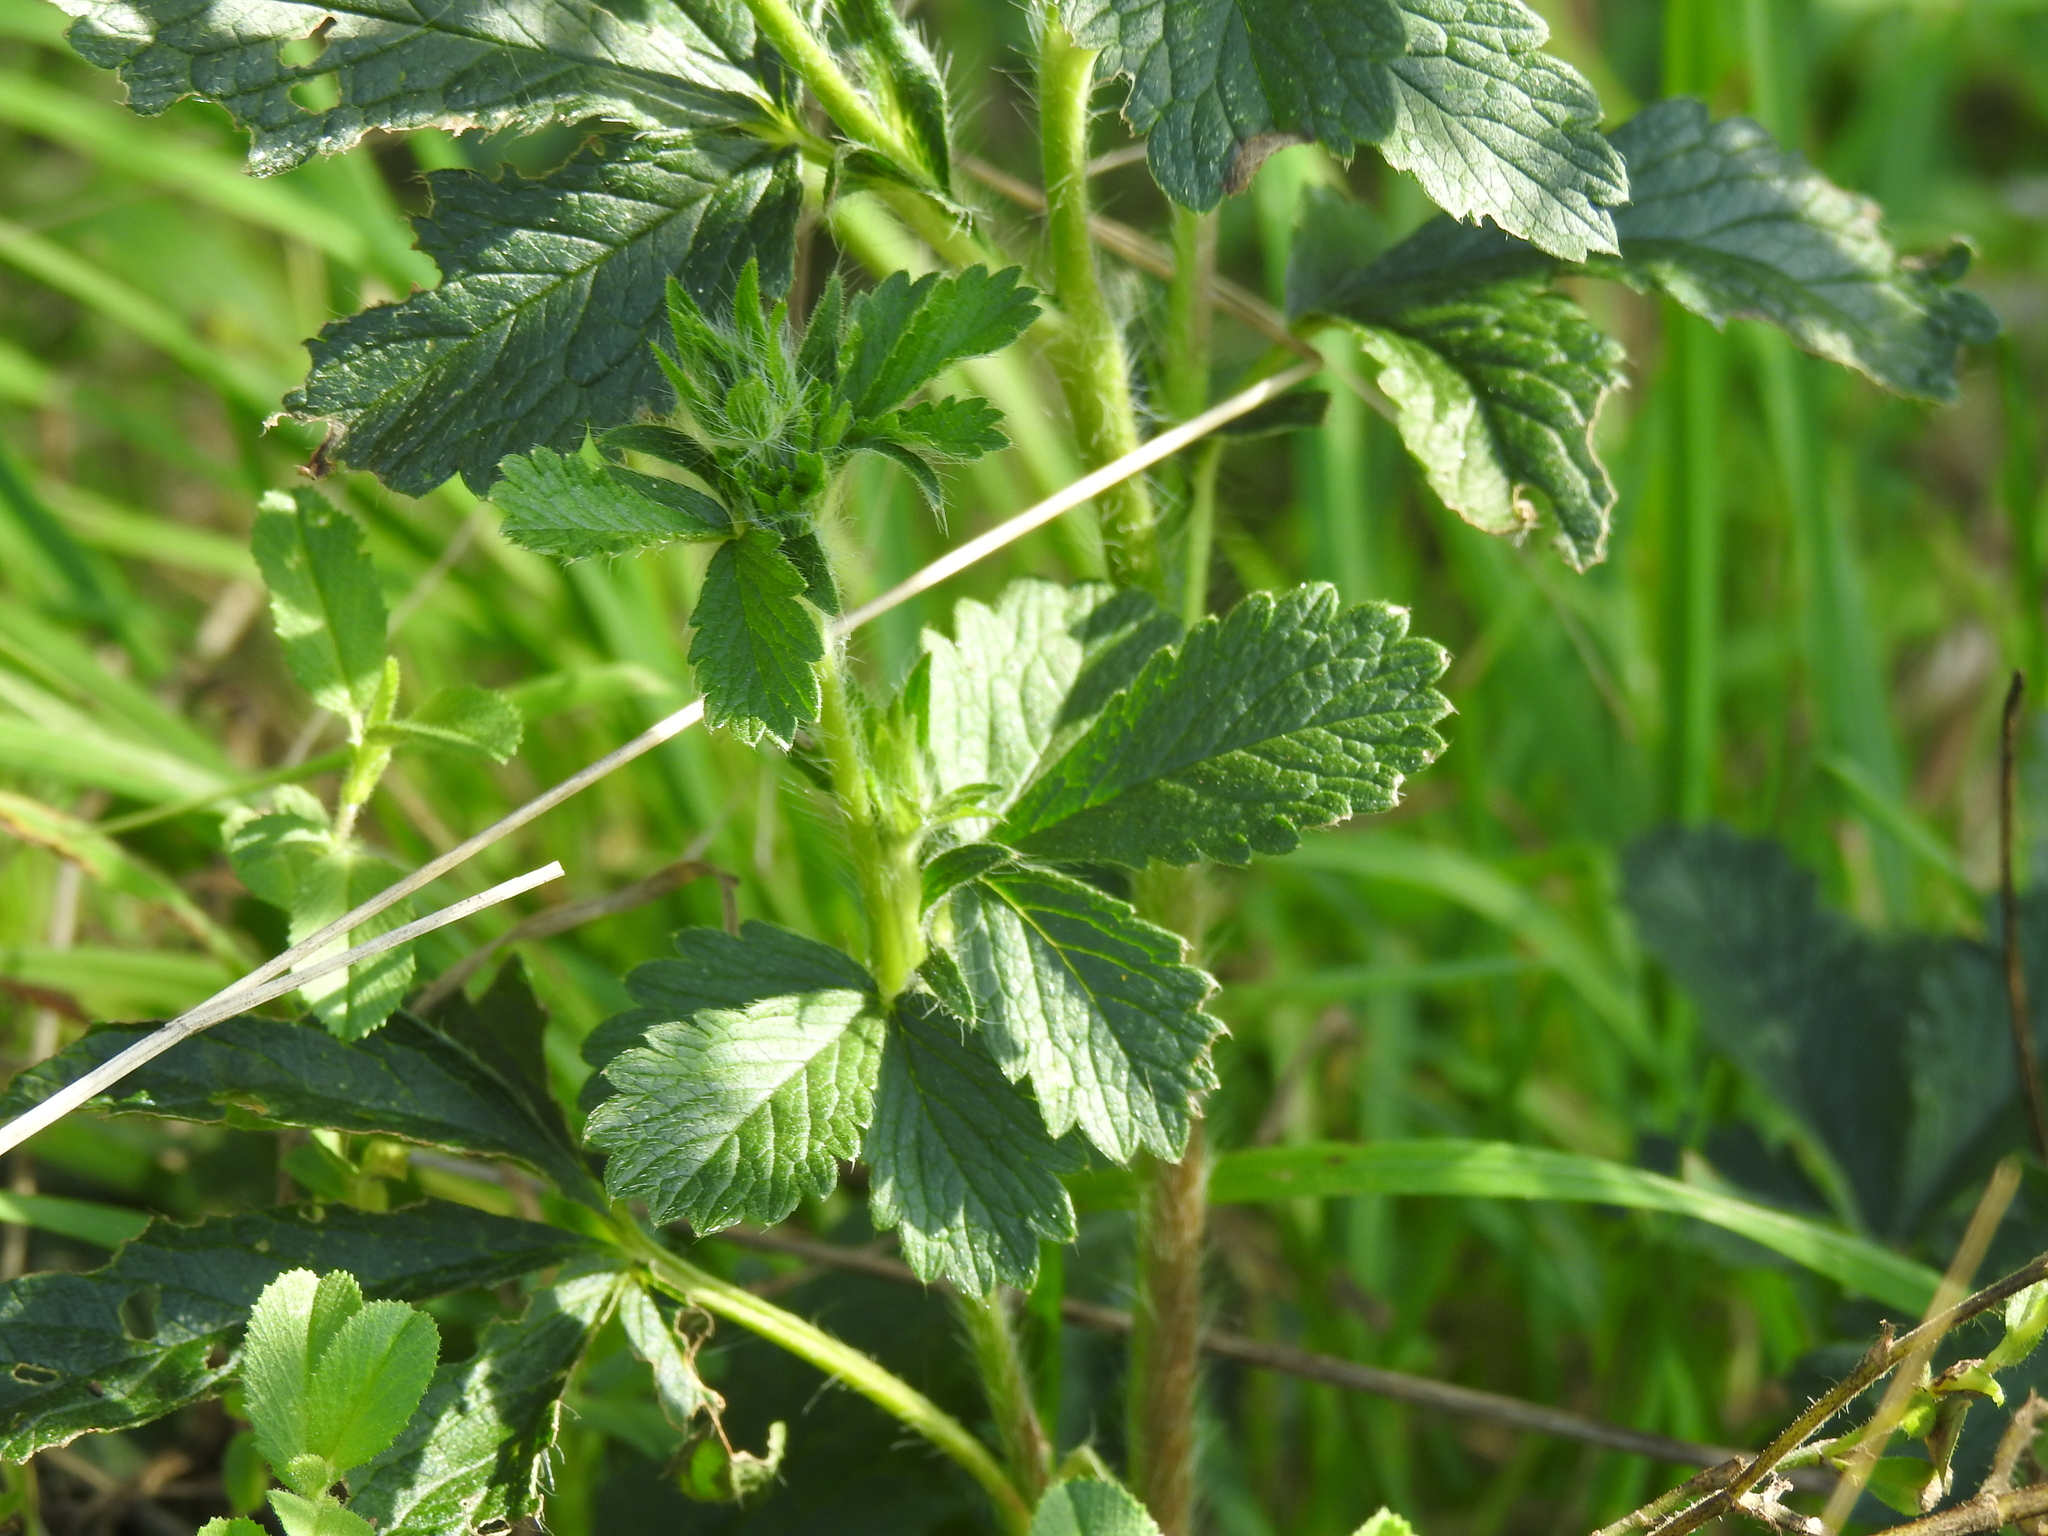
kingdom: Plantae
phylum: Tracheophyta
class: Magnoliopsida
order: Rosales
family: Rosaceae
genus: Potentilla
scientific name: Potentilla recta
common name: Sulphur cinquefoil
